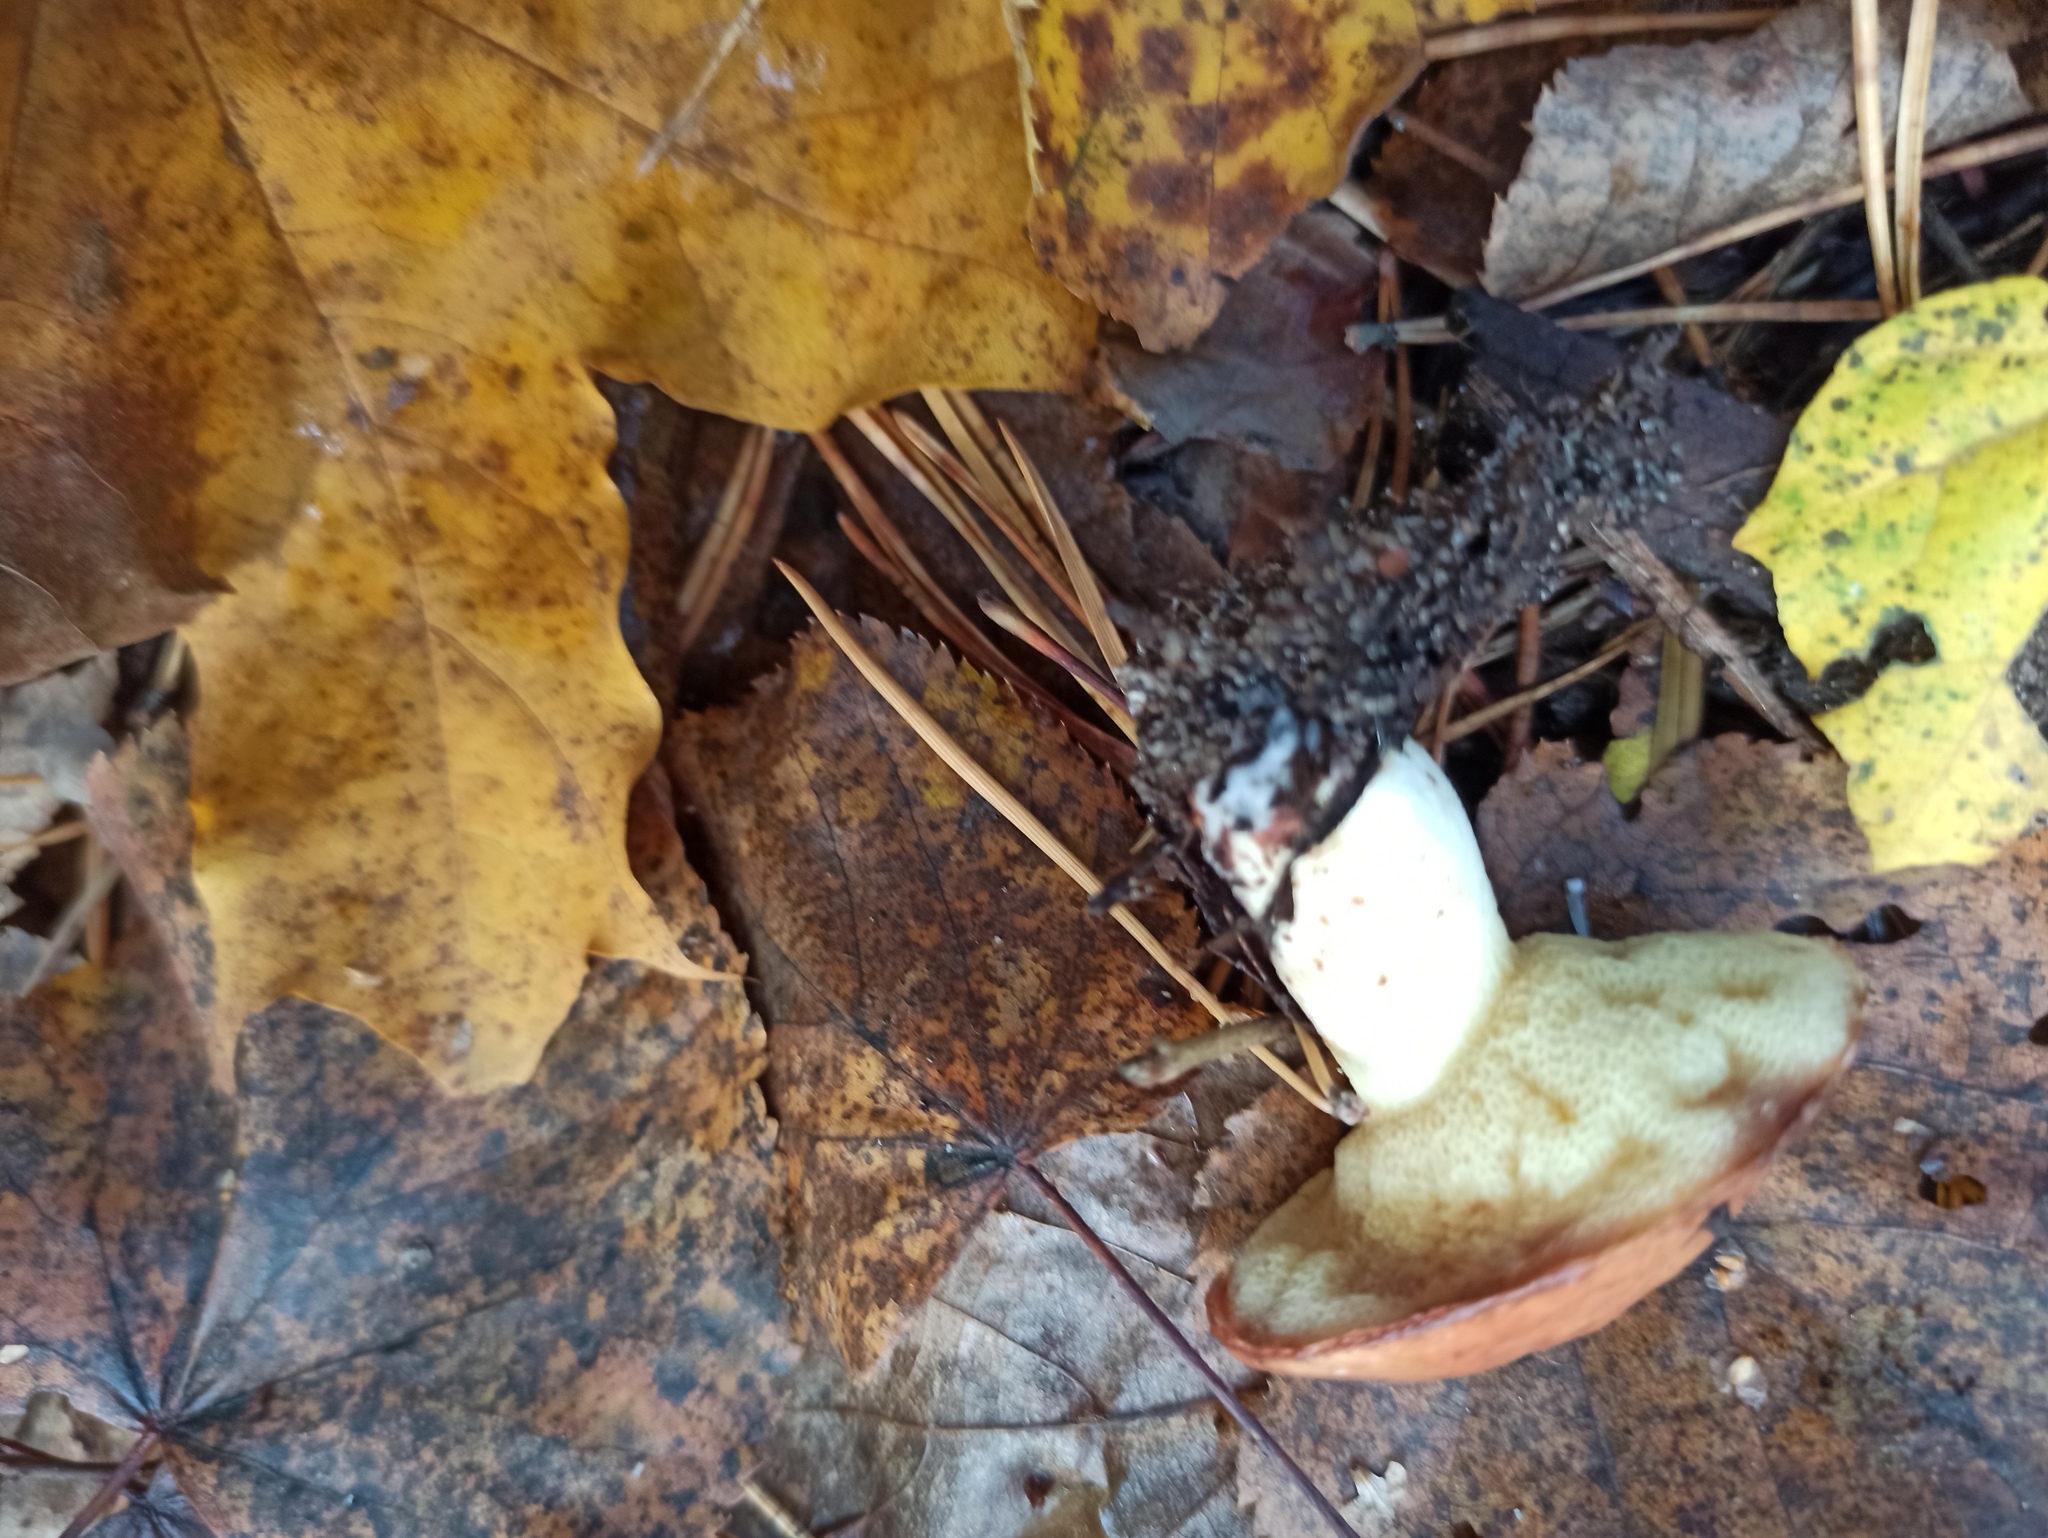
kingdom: Fungi
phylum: Basidiomycota
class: Agaricomycetes
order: Boletales
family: Suillaceae
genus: Suillus
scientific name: Suillus granulatus
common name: Weeping bolete
